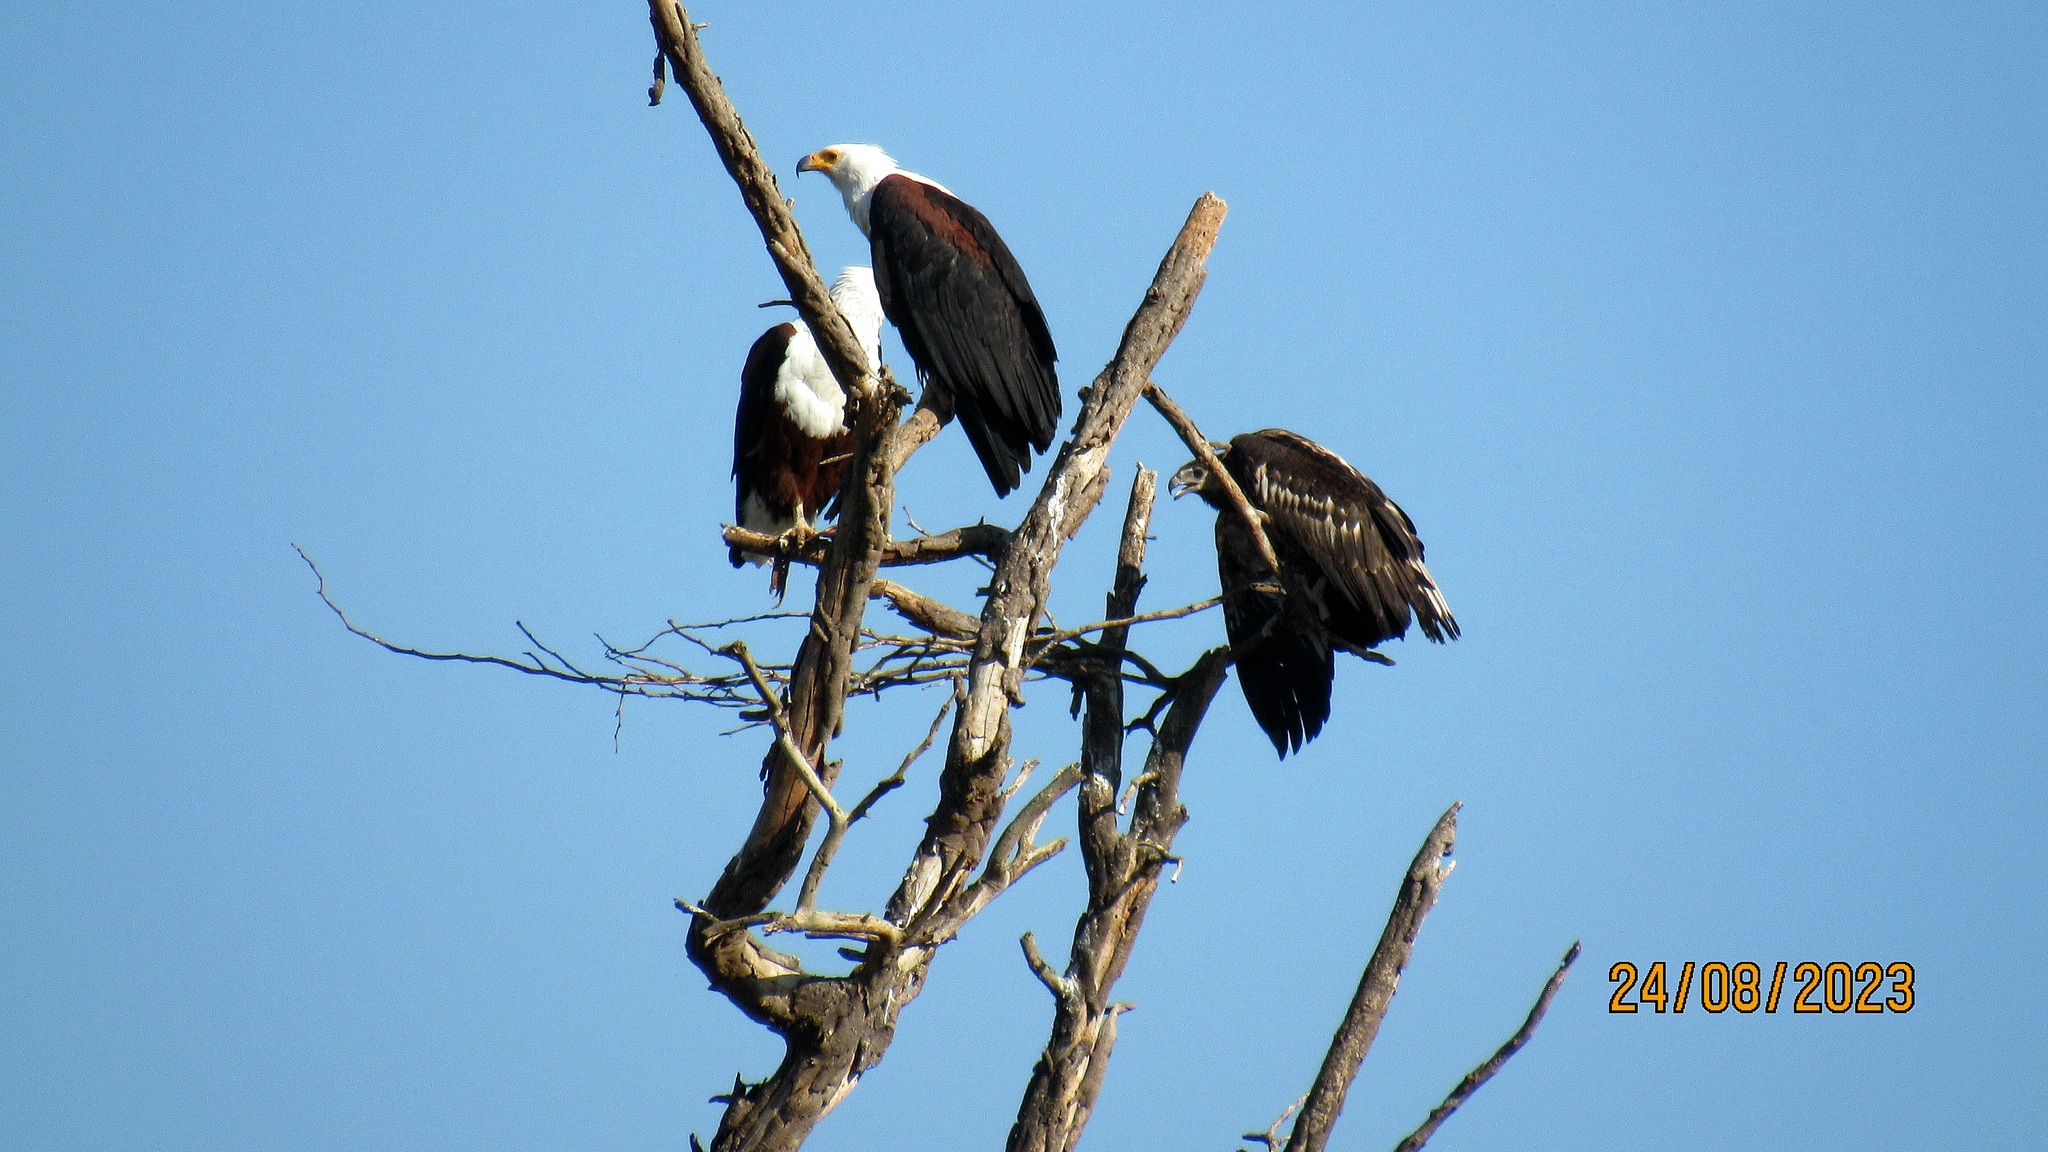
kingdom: Animalia
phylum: Chordata
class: Aves
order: Accipitriformes
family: Accipitridae
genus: Haliaeetus
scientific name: Haliaeetus vocifer
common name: African fish eagle
